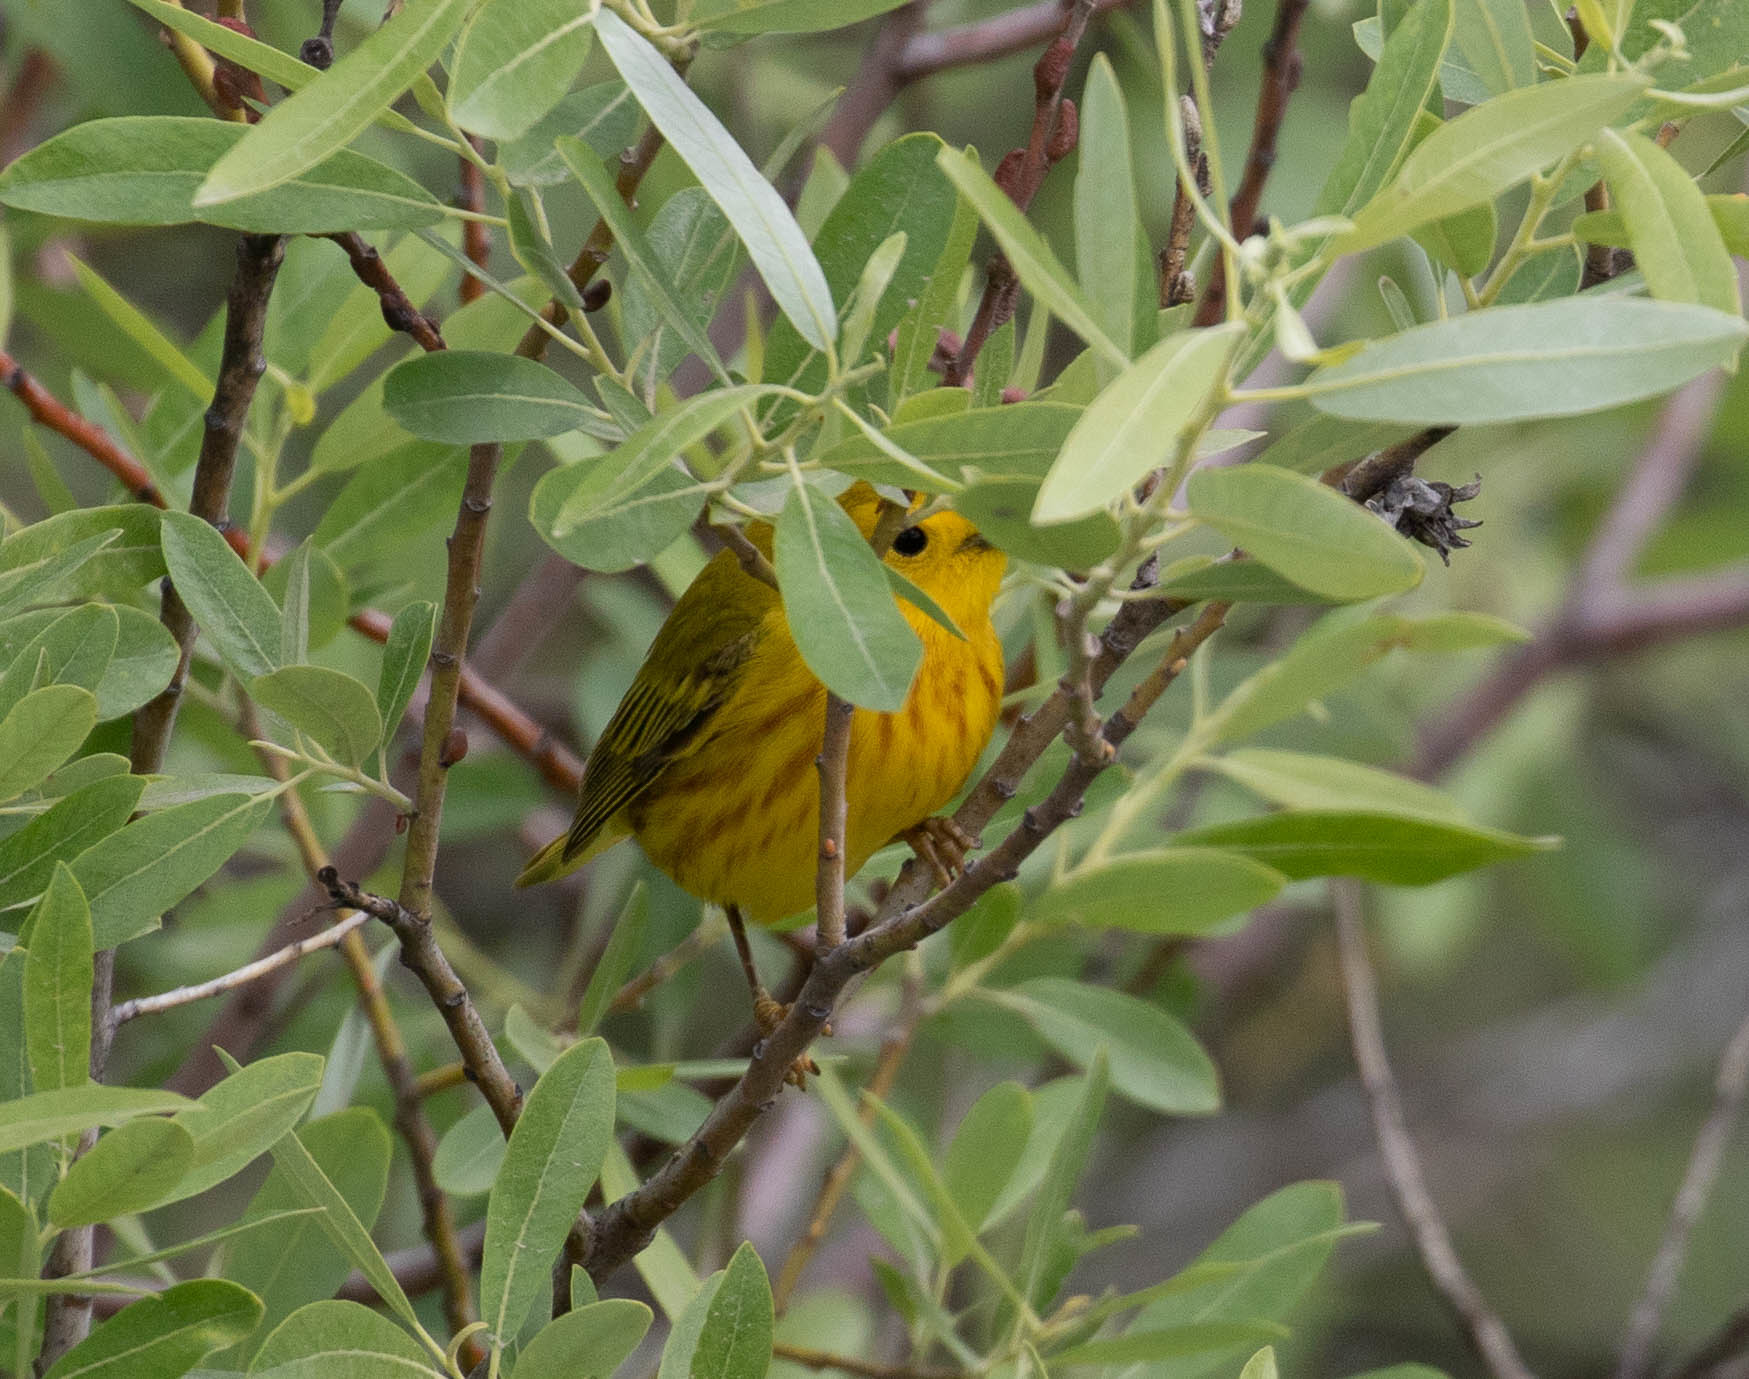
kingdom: Animalia
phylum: Chordata
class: Aves
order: Passeriformes
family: Parulidae
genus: Setophaga
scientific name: Setophaga petechia
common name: Yellow warbler
